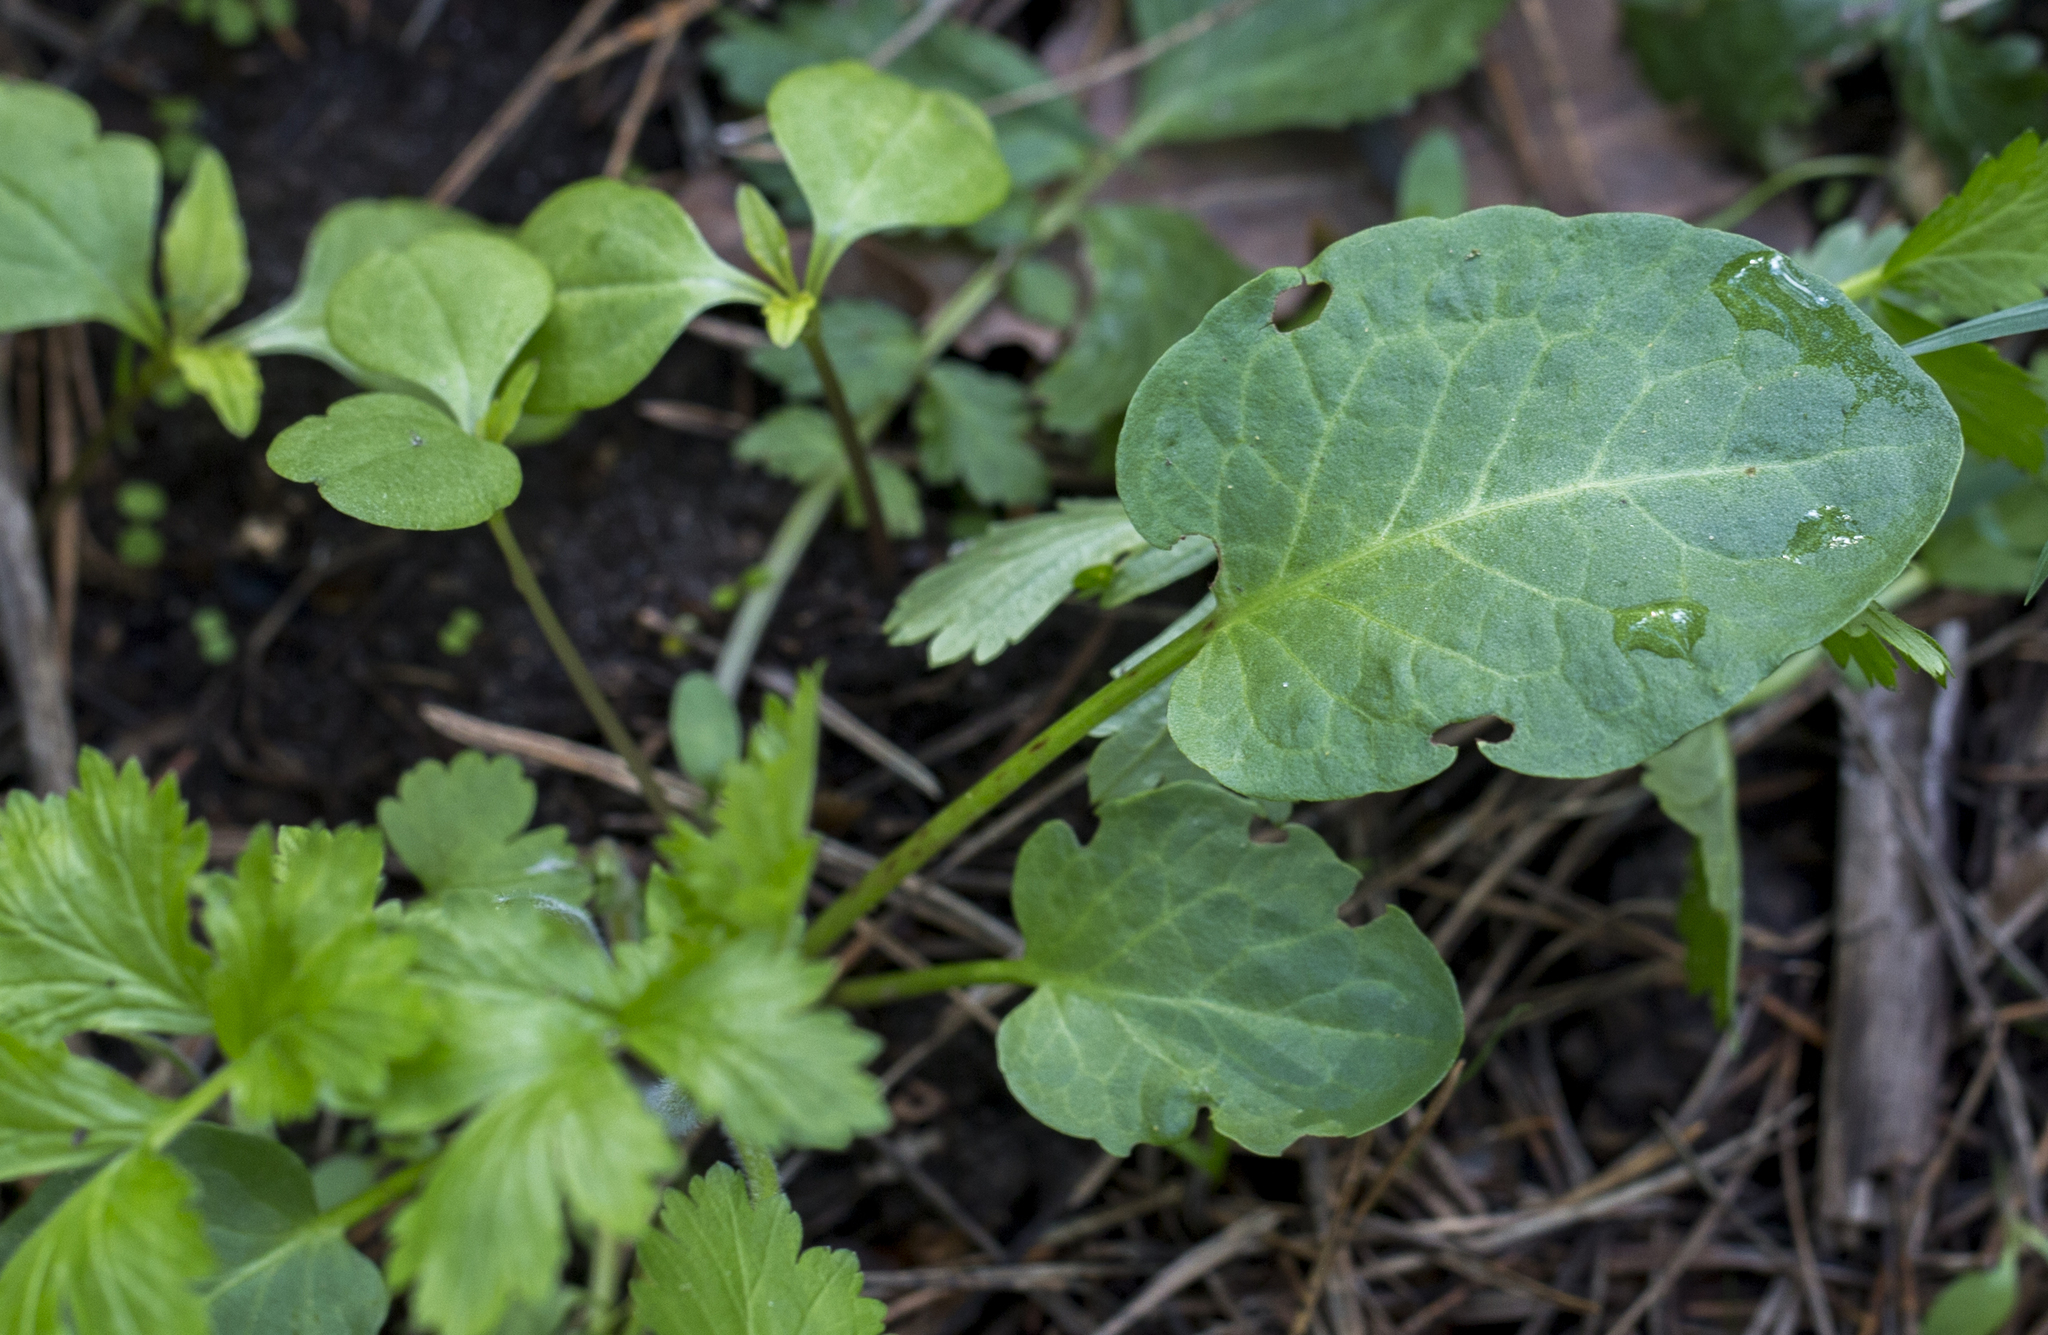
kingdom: Plantae
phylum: Tracheophyta
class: Magnoliopsida
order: Caryophyllales
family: Polygonaceae
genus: Rumex
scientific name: Rumex obtusifolius
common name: Bitter dock
